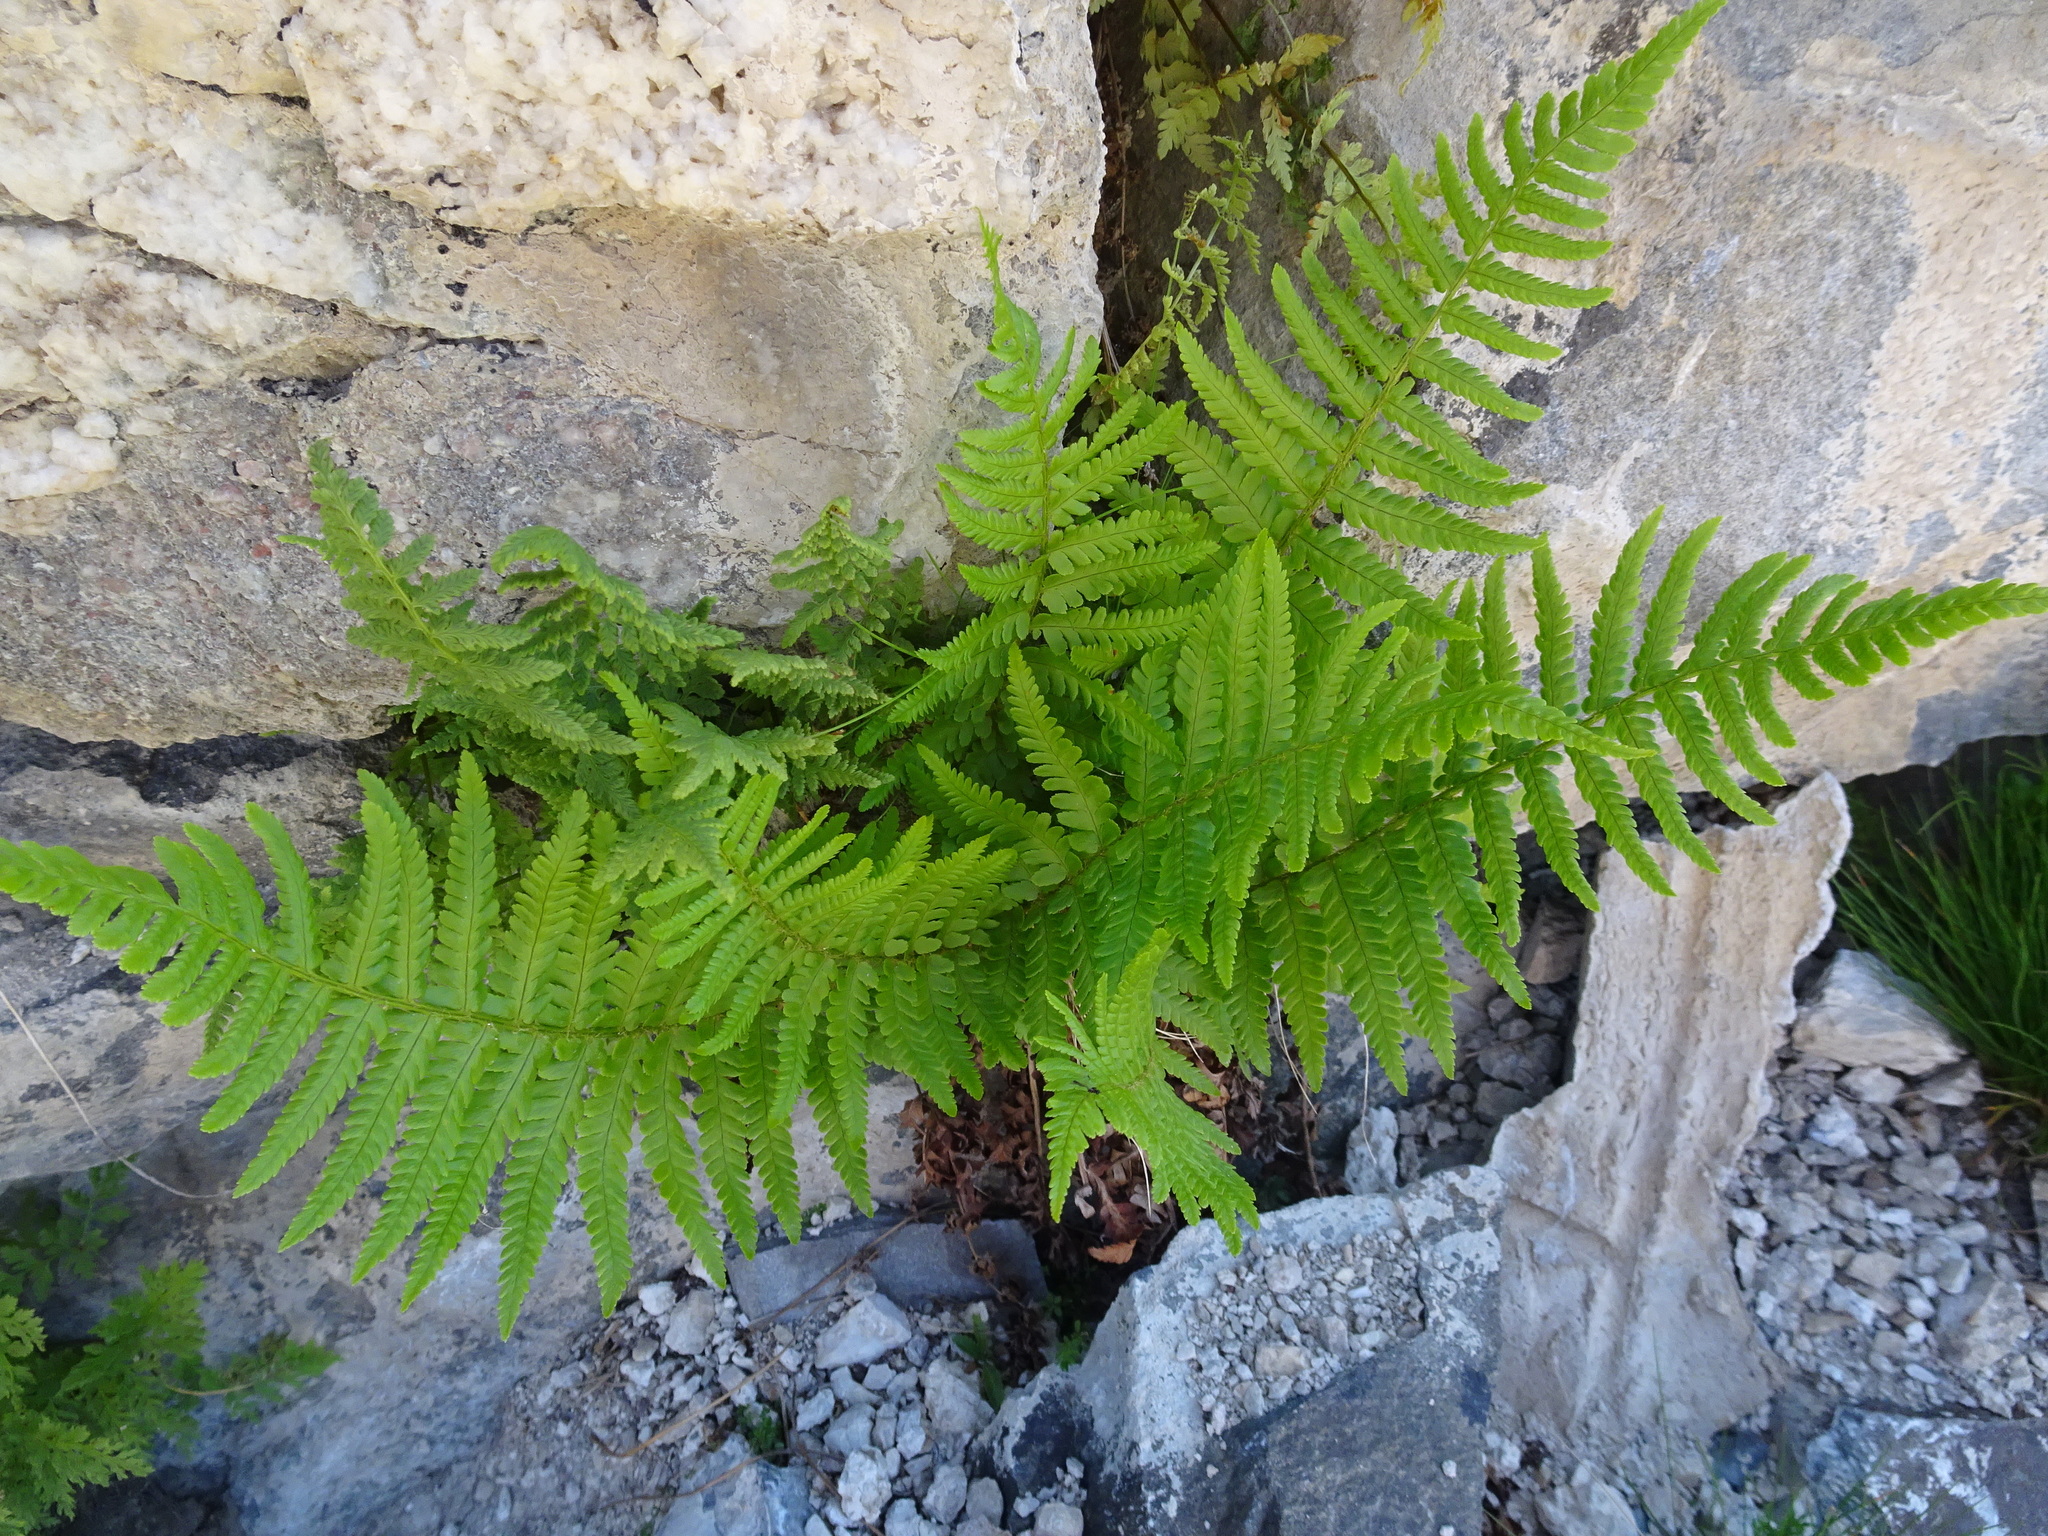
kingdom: Plantae
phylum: Tracheophyta
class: Polypodiopsida
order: Polypodiales
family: Dryopteridaceae
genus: Dryopteris
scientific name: Dryopteris filix-mas
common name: Male fern
